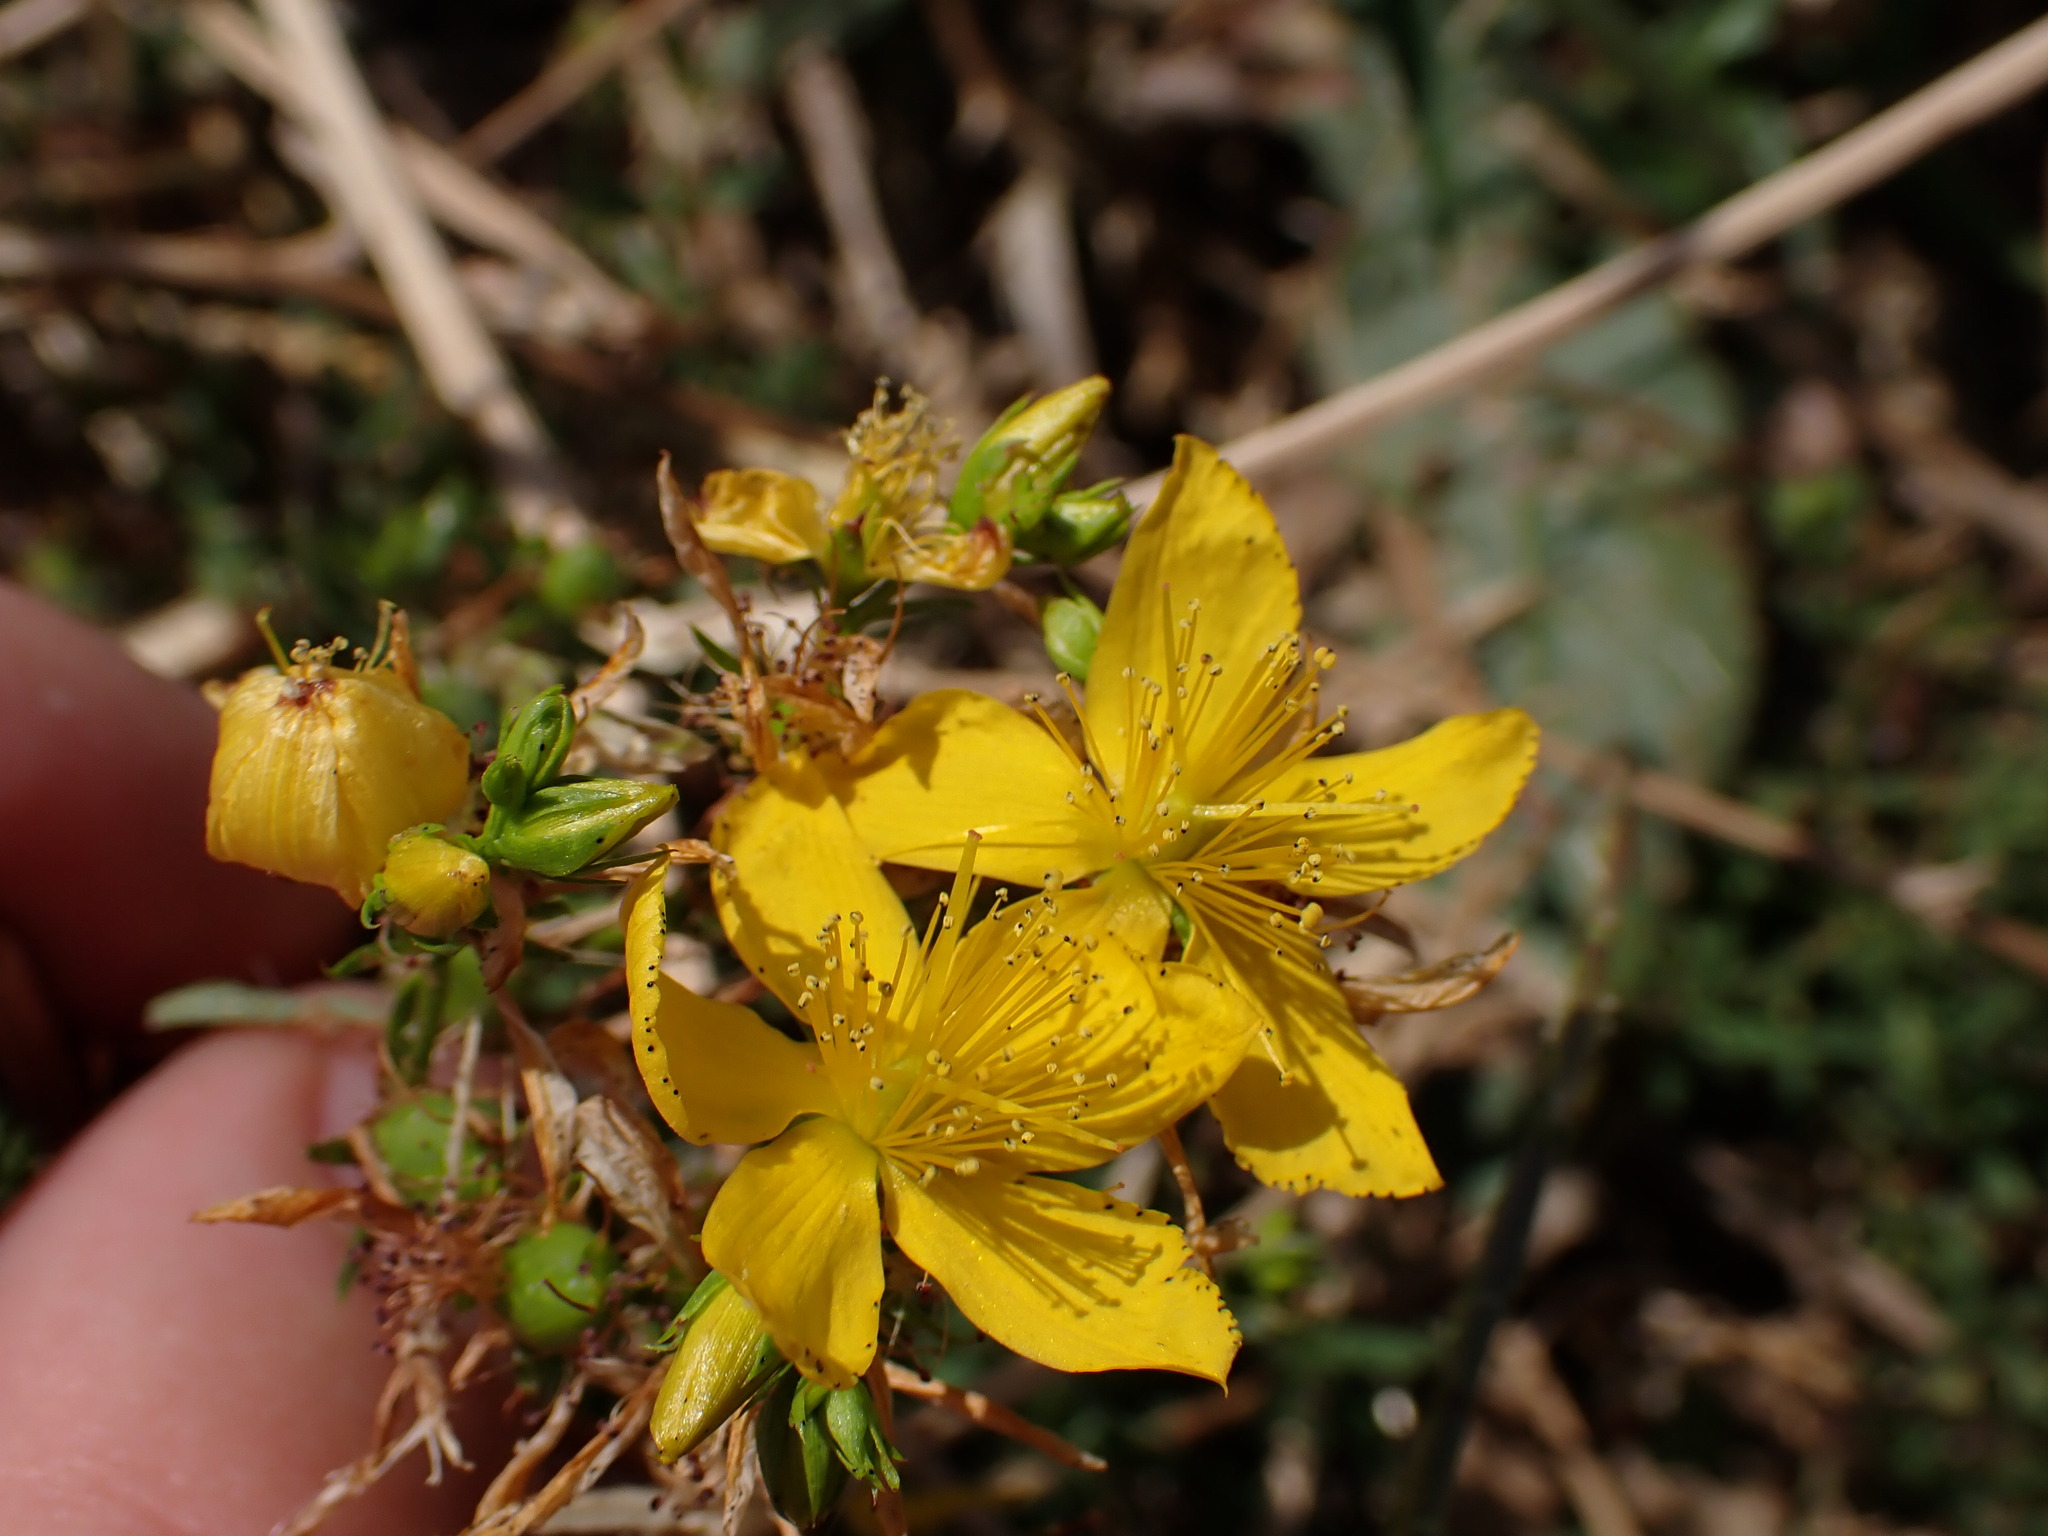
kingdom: Plantae
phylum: Tracheophyta
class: Magnoliopsida
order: Malpighiales
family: Hypericaceae
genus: Hypericum
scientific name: Hypericum perforatum
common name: Common st. johnswort
